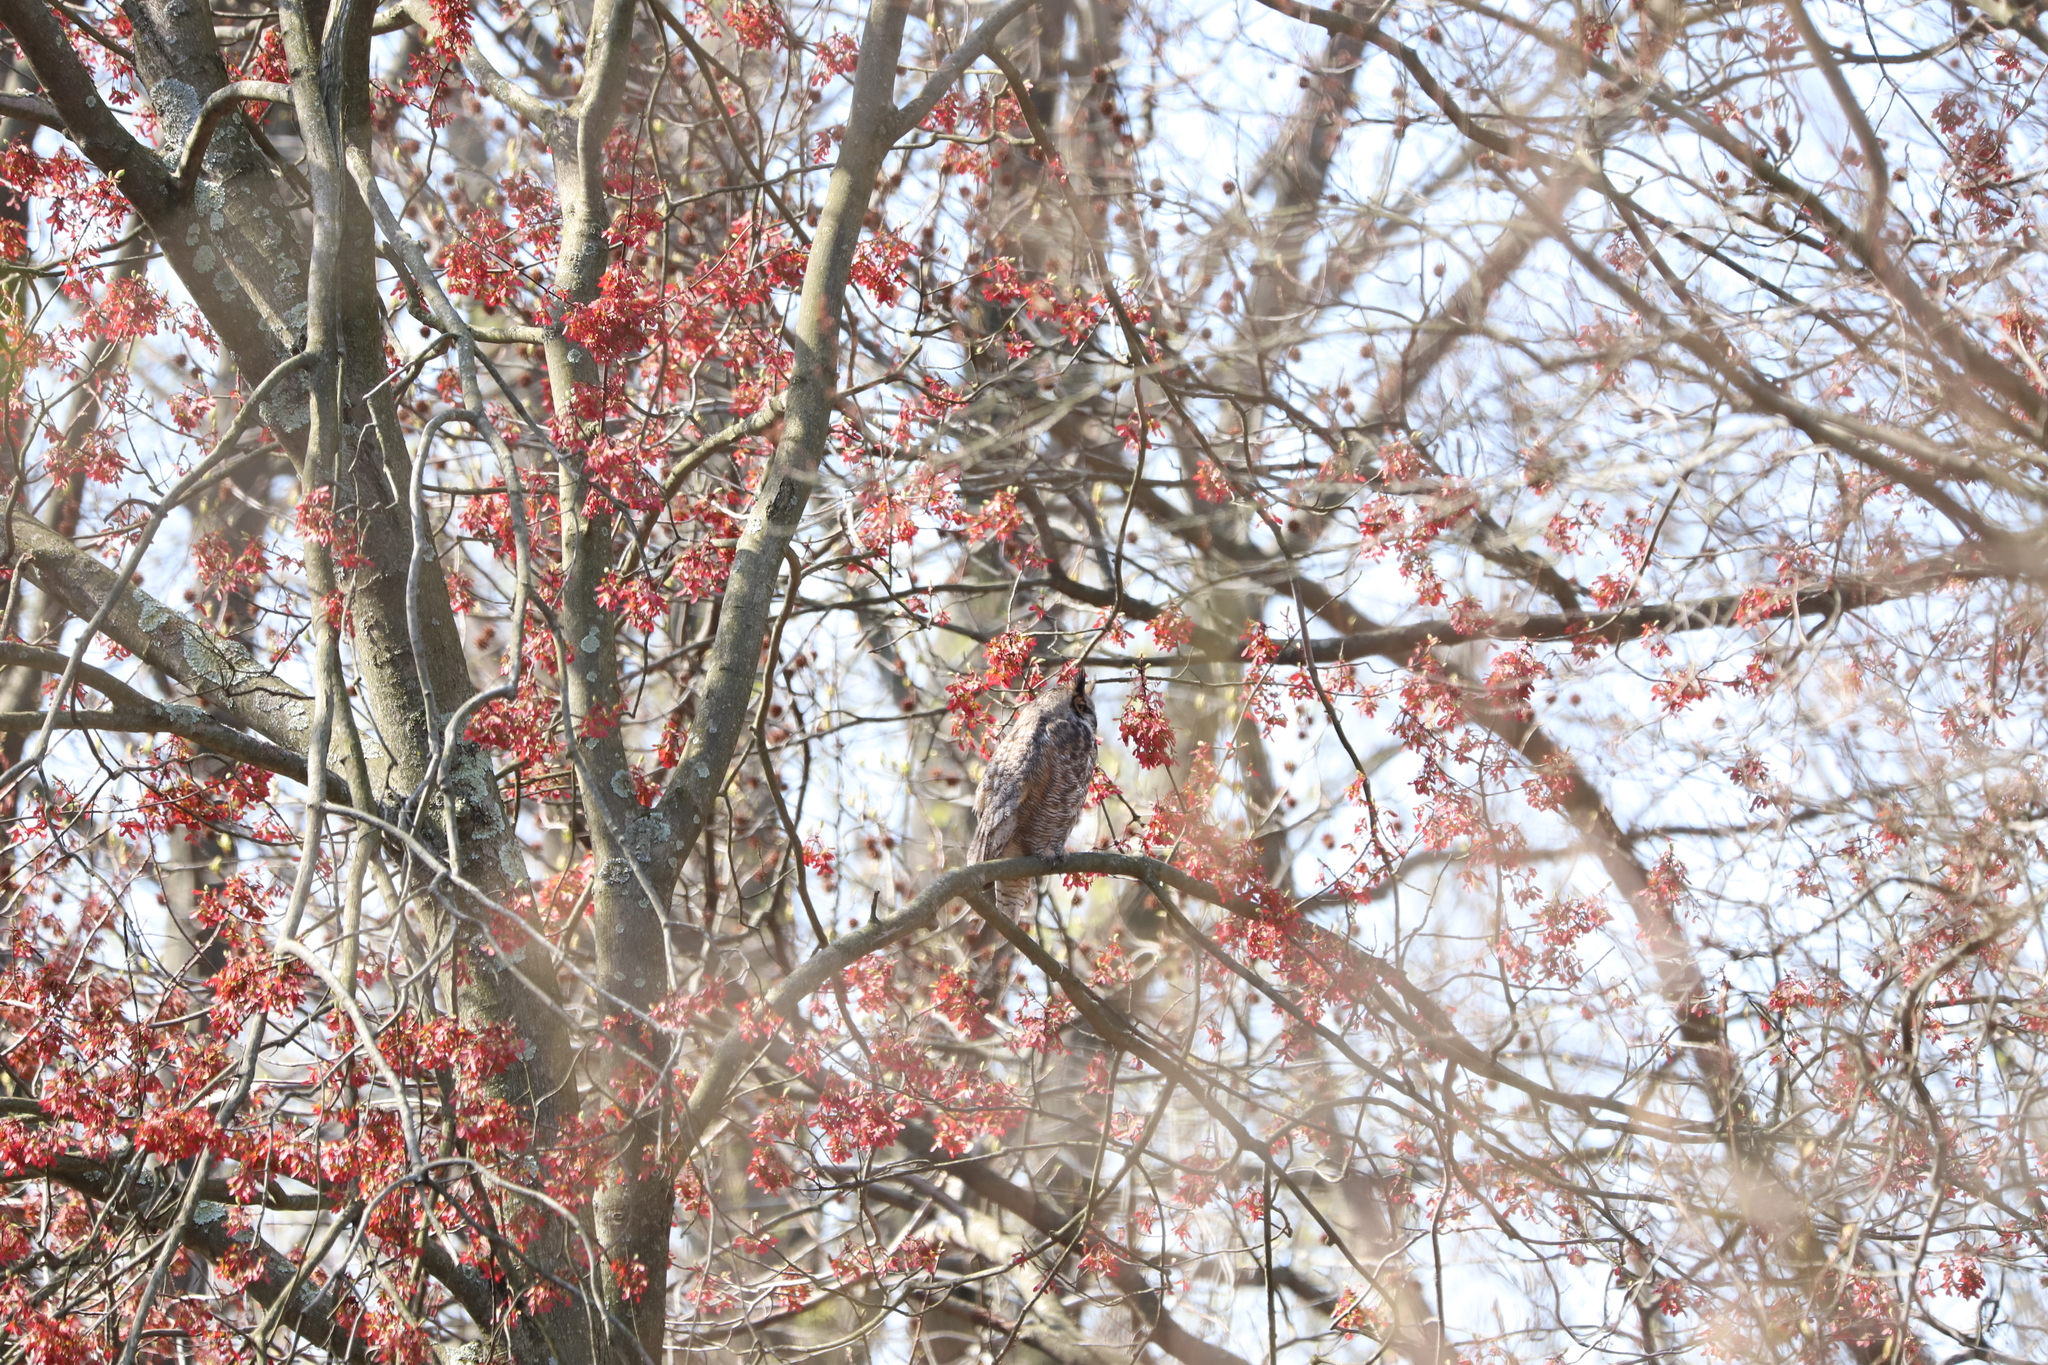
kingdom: Plantae
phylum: Tracheophyta
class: Magnoliopsida
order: Sapindales
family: Sapindaceae
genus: Acer
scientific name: Acer rubrum
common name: Red maple
